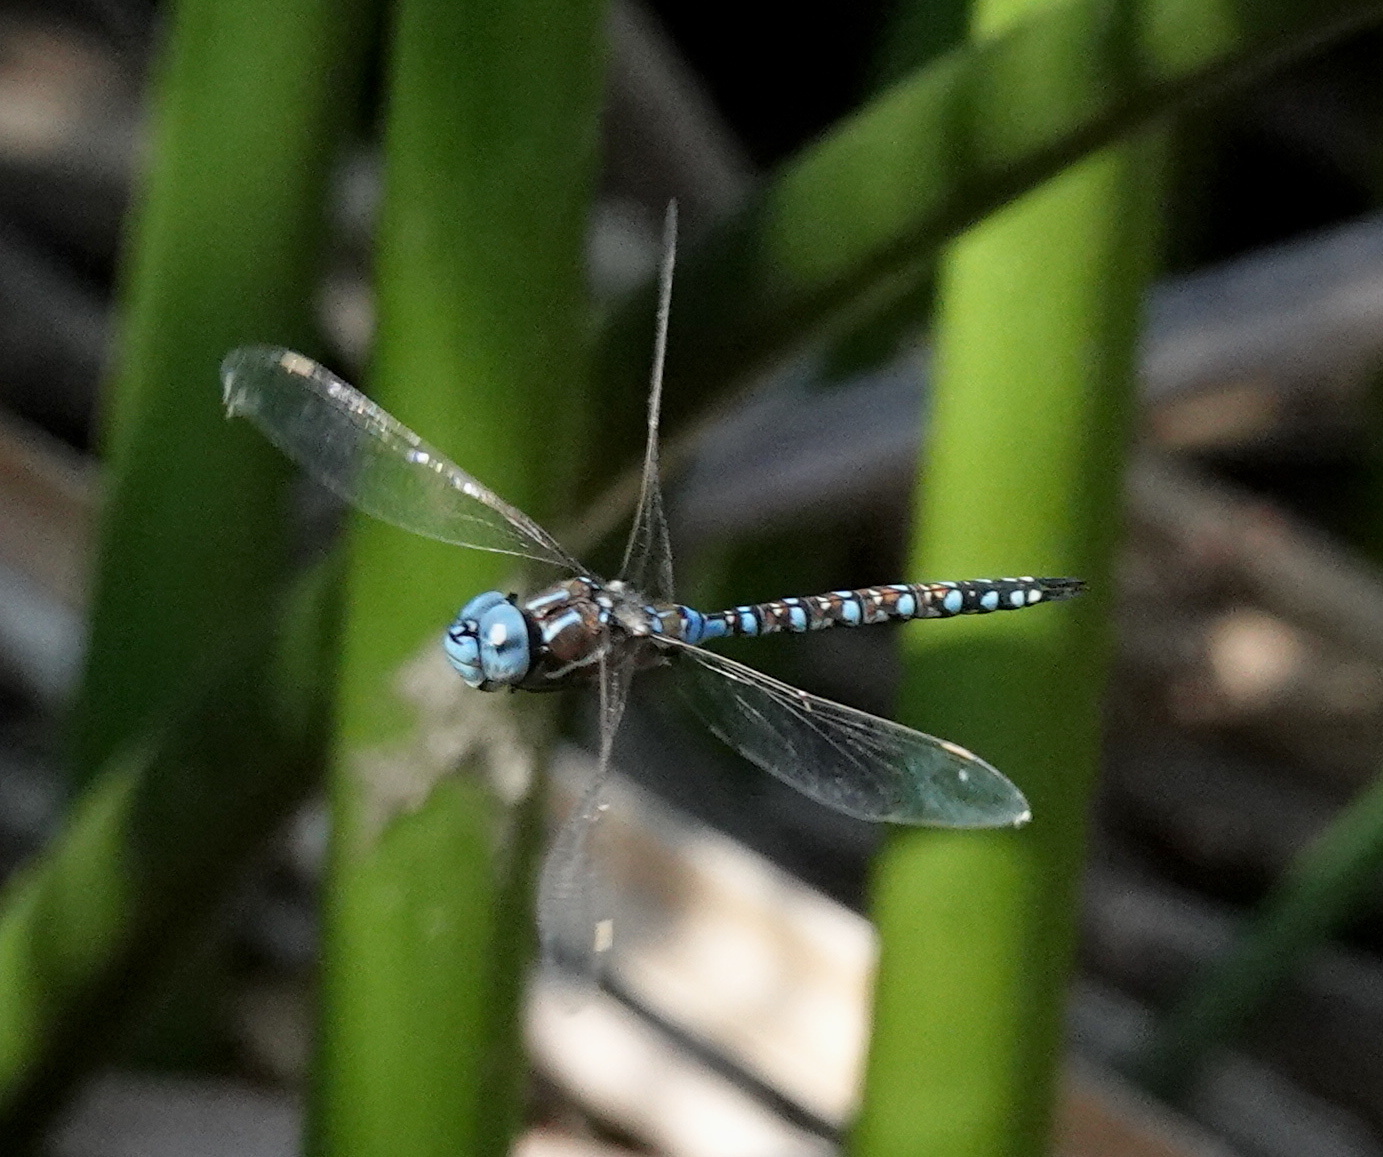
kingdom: Animalia
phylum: Arthropoda
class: Insecta
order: Odonata
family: Aeshnidae
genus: Rhionaeschna
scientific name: Rhionaeschna multicolor
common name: Blue-eyed darner
